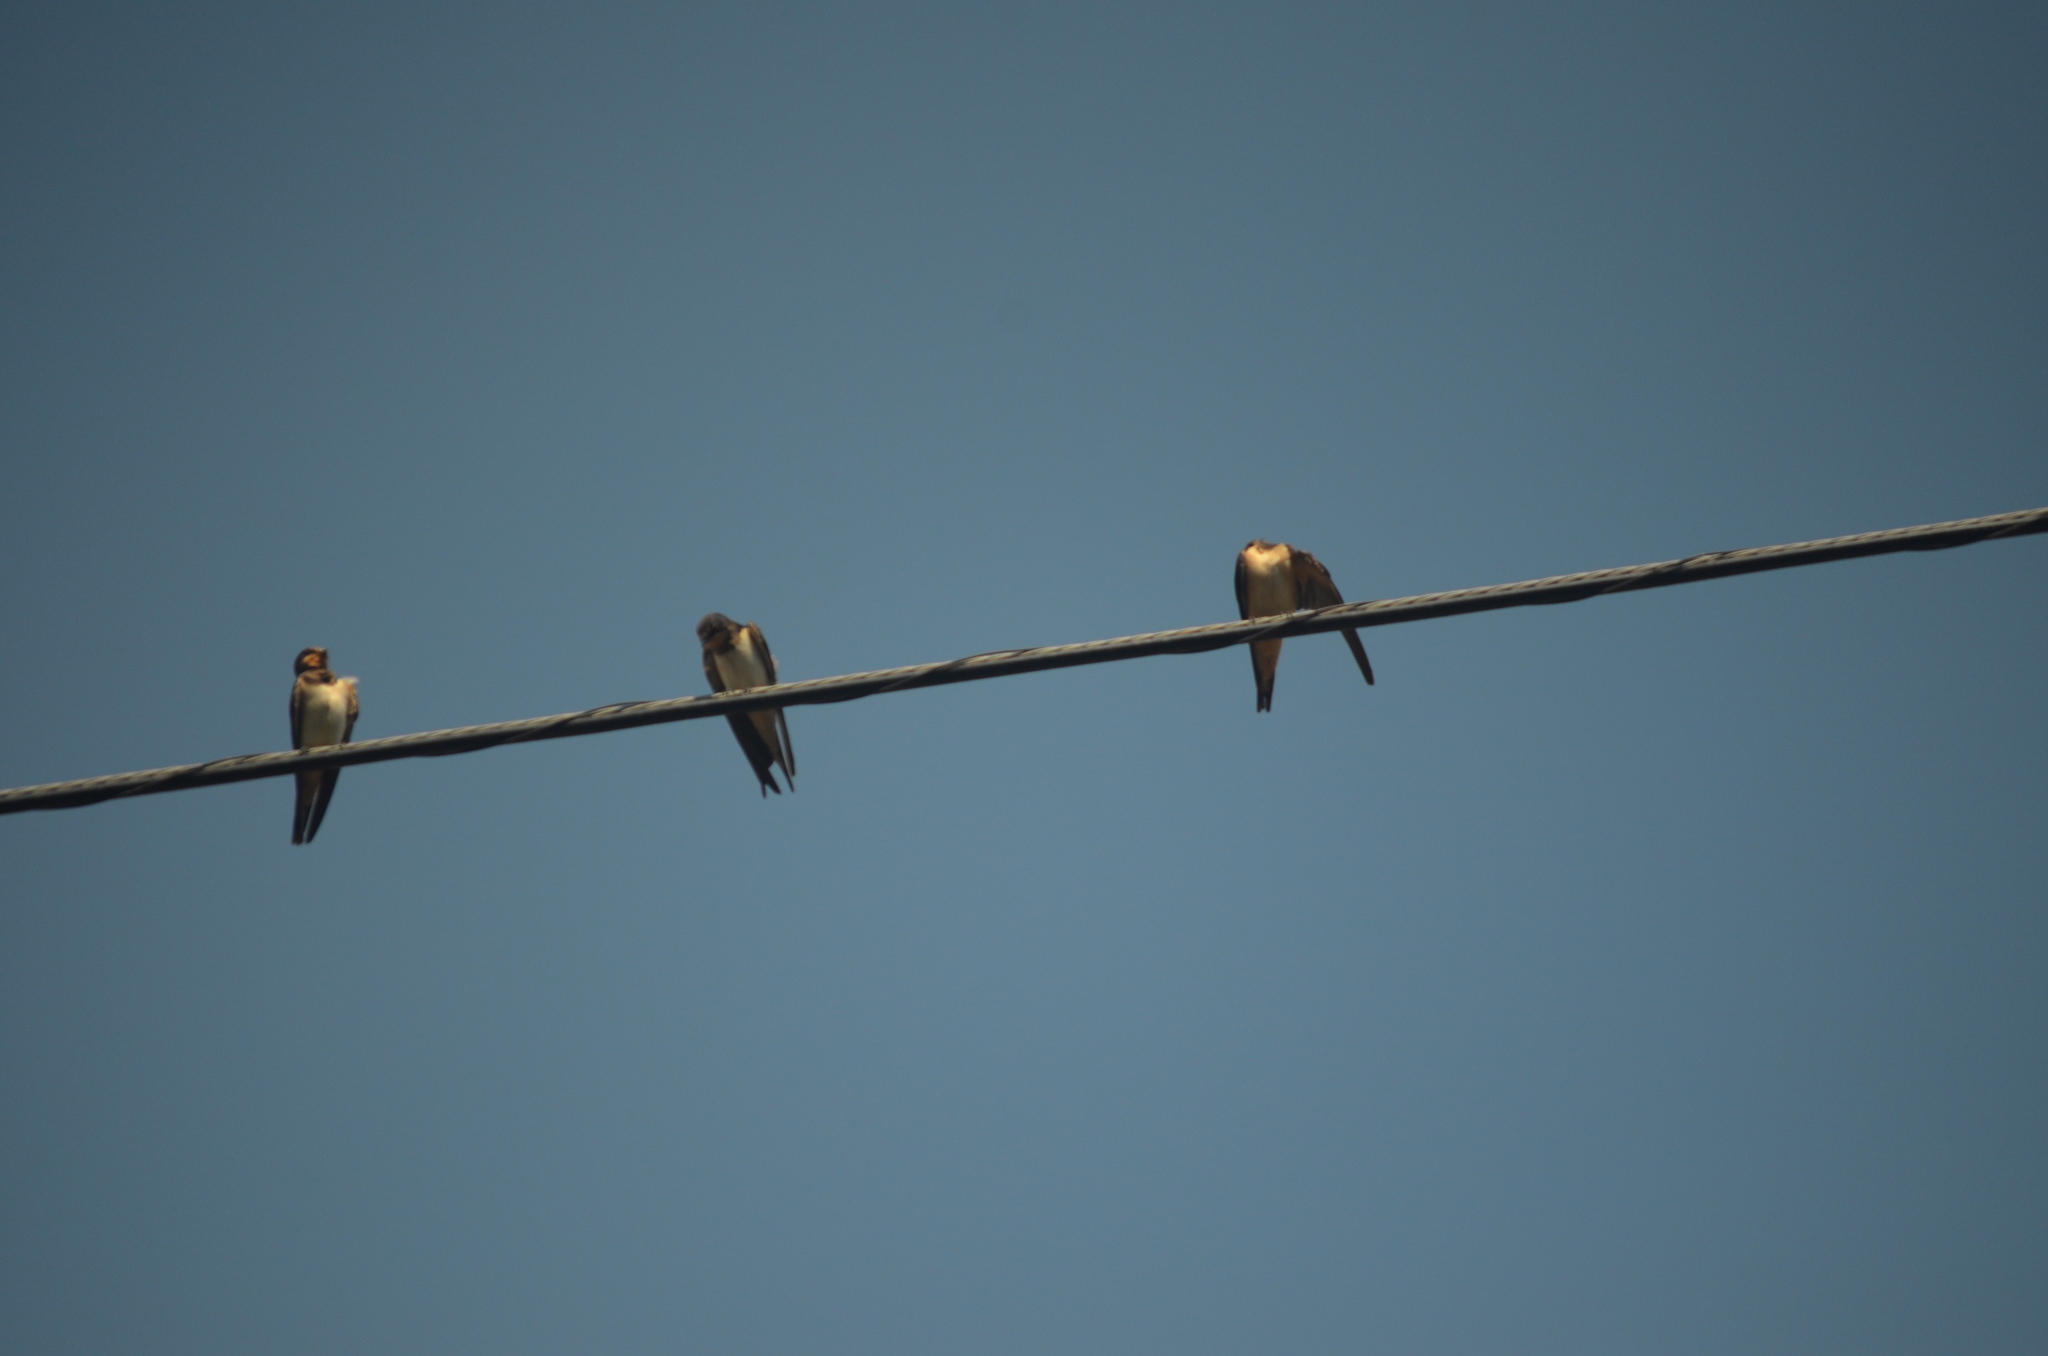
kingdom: Animalia
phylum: Chordata
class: Aves
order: Passeriformes
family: Hirundinidae
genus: Hirundo
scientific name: Hirundo rustica
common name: Barn swallow
